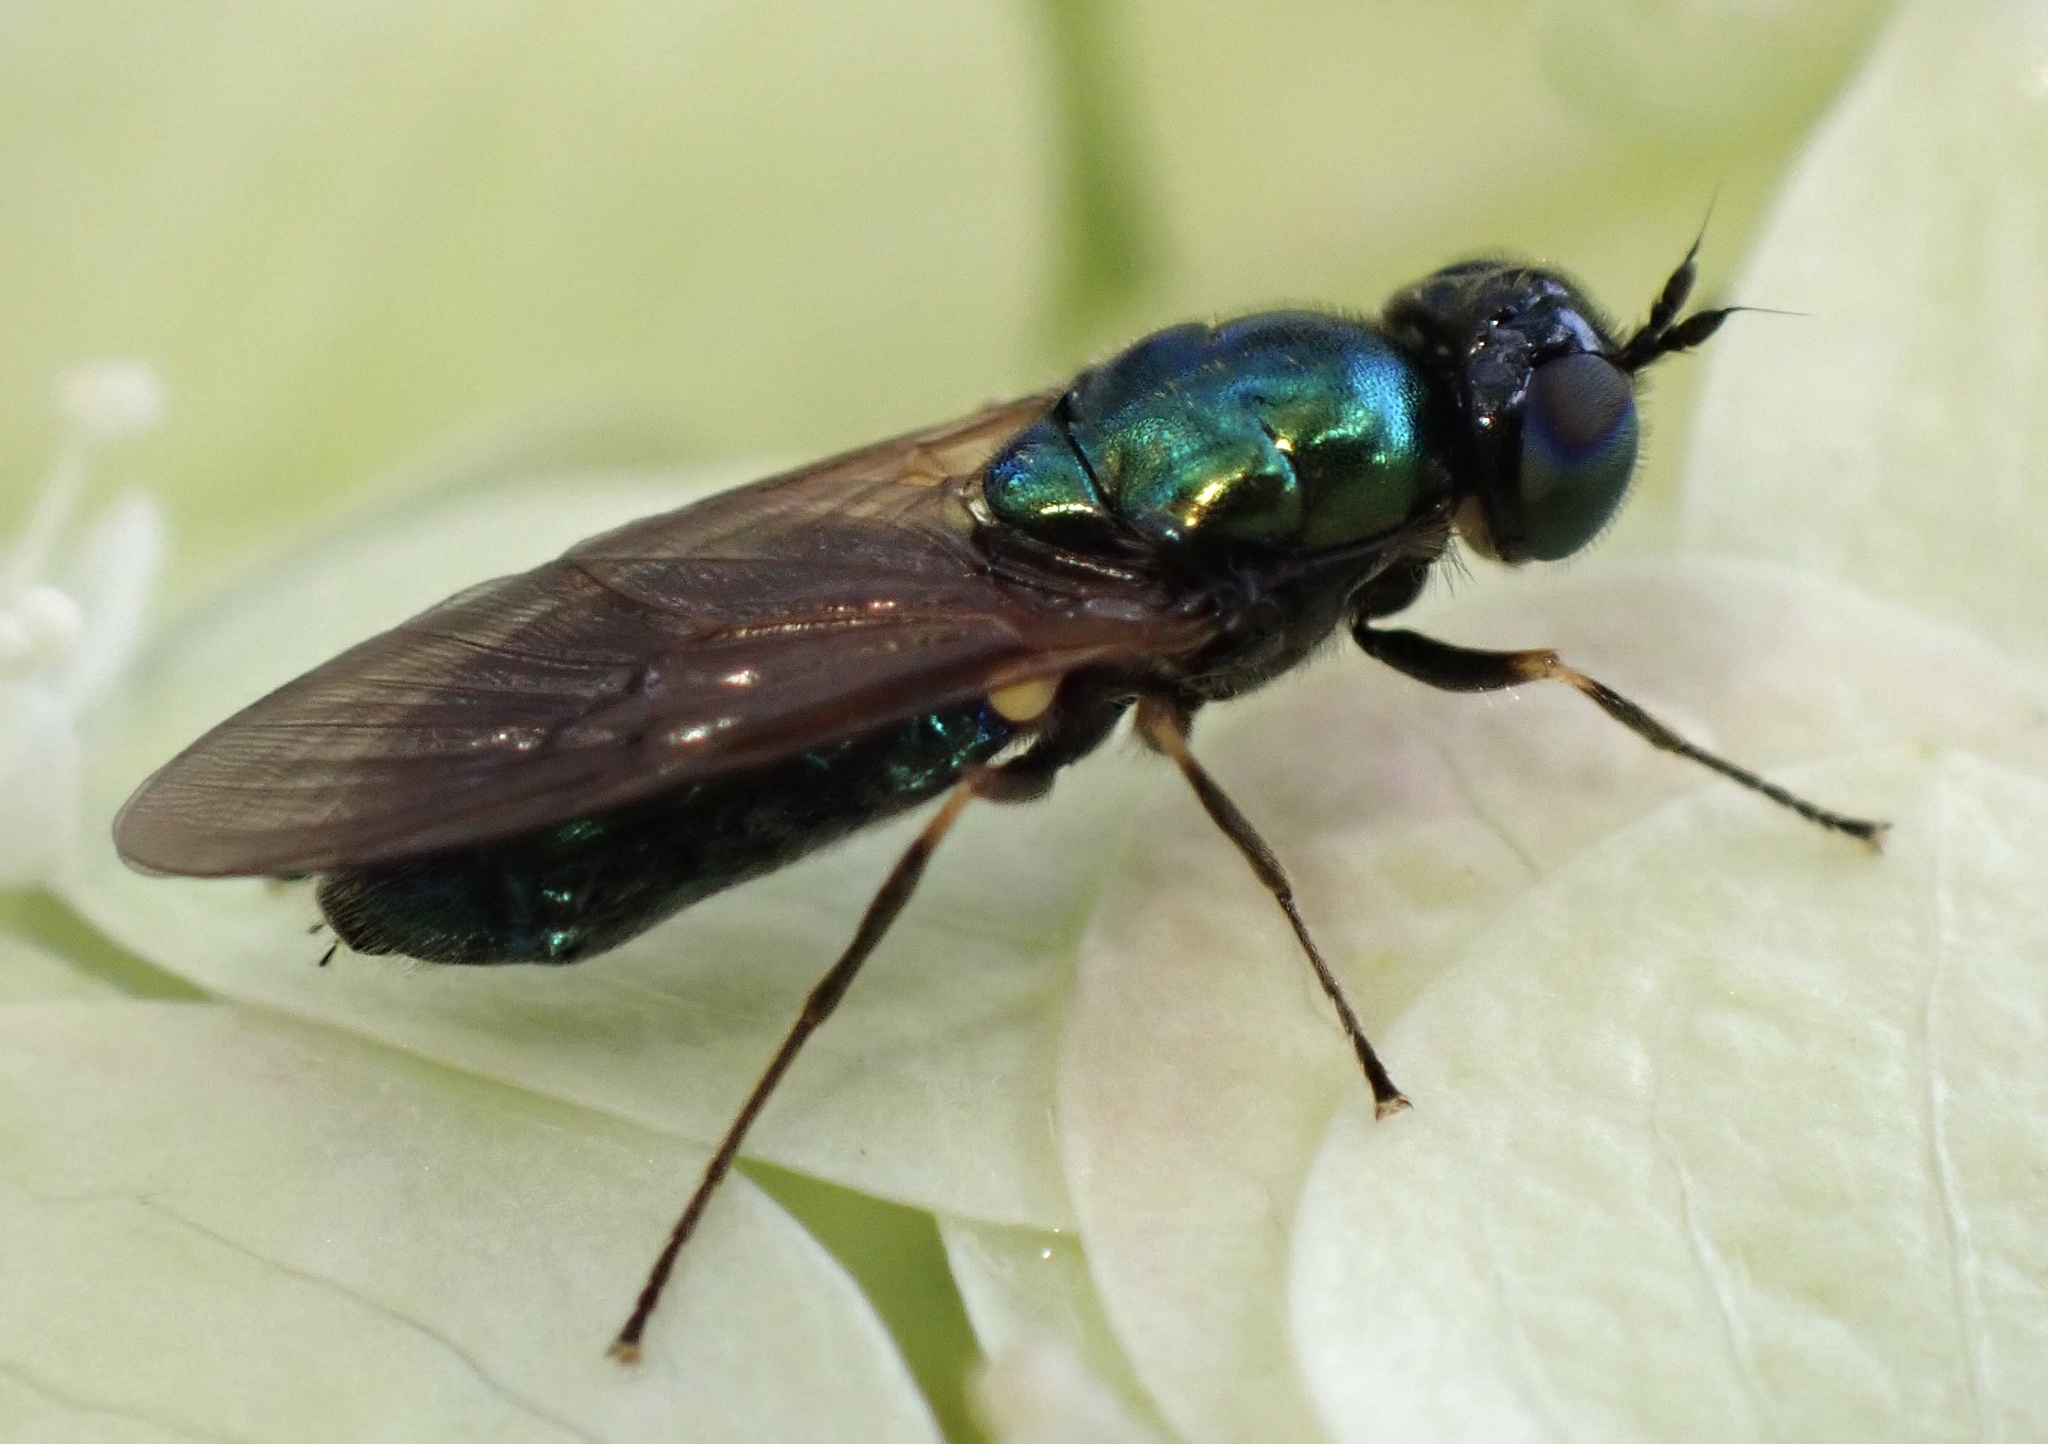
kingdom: Animalia
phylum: Arthropoda
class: Insecta
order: Diptera
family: Stratiomyidae
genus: Chloromyia
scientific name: Chloromyia formosa
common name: Soldier fly
